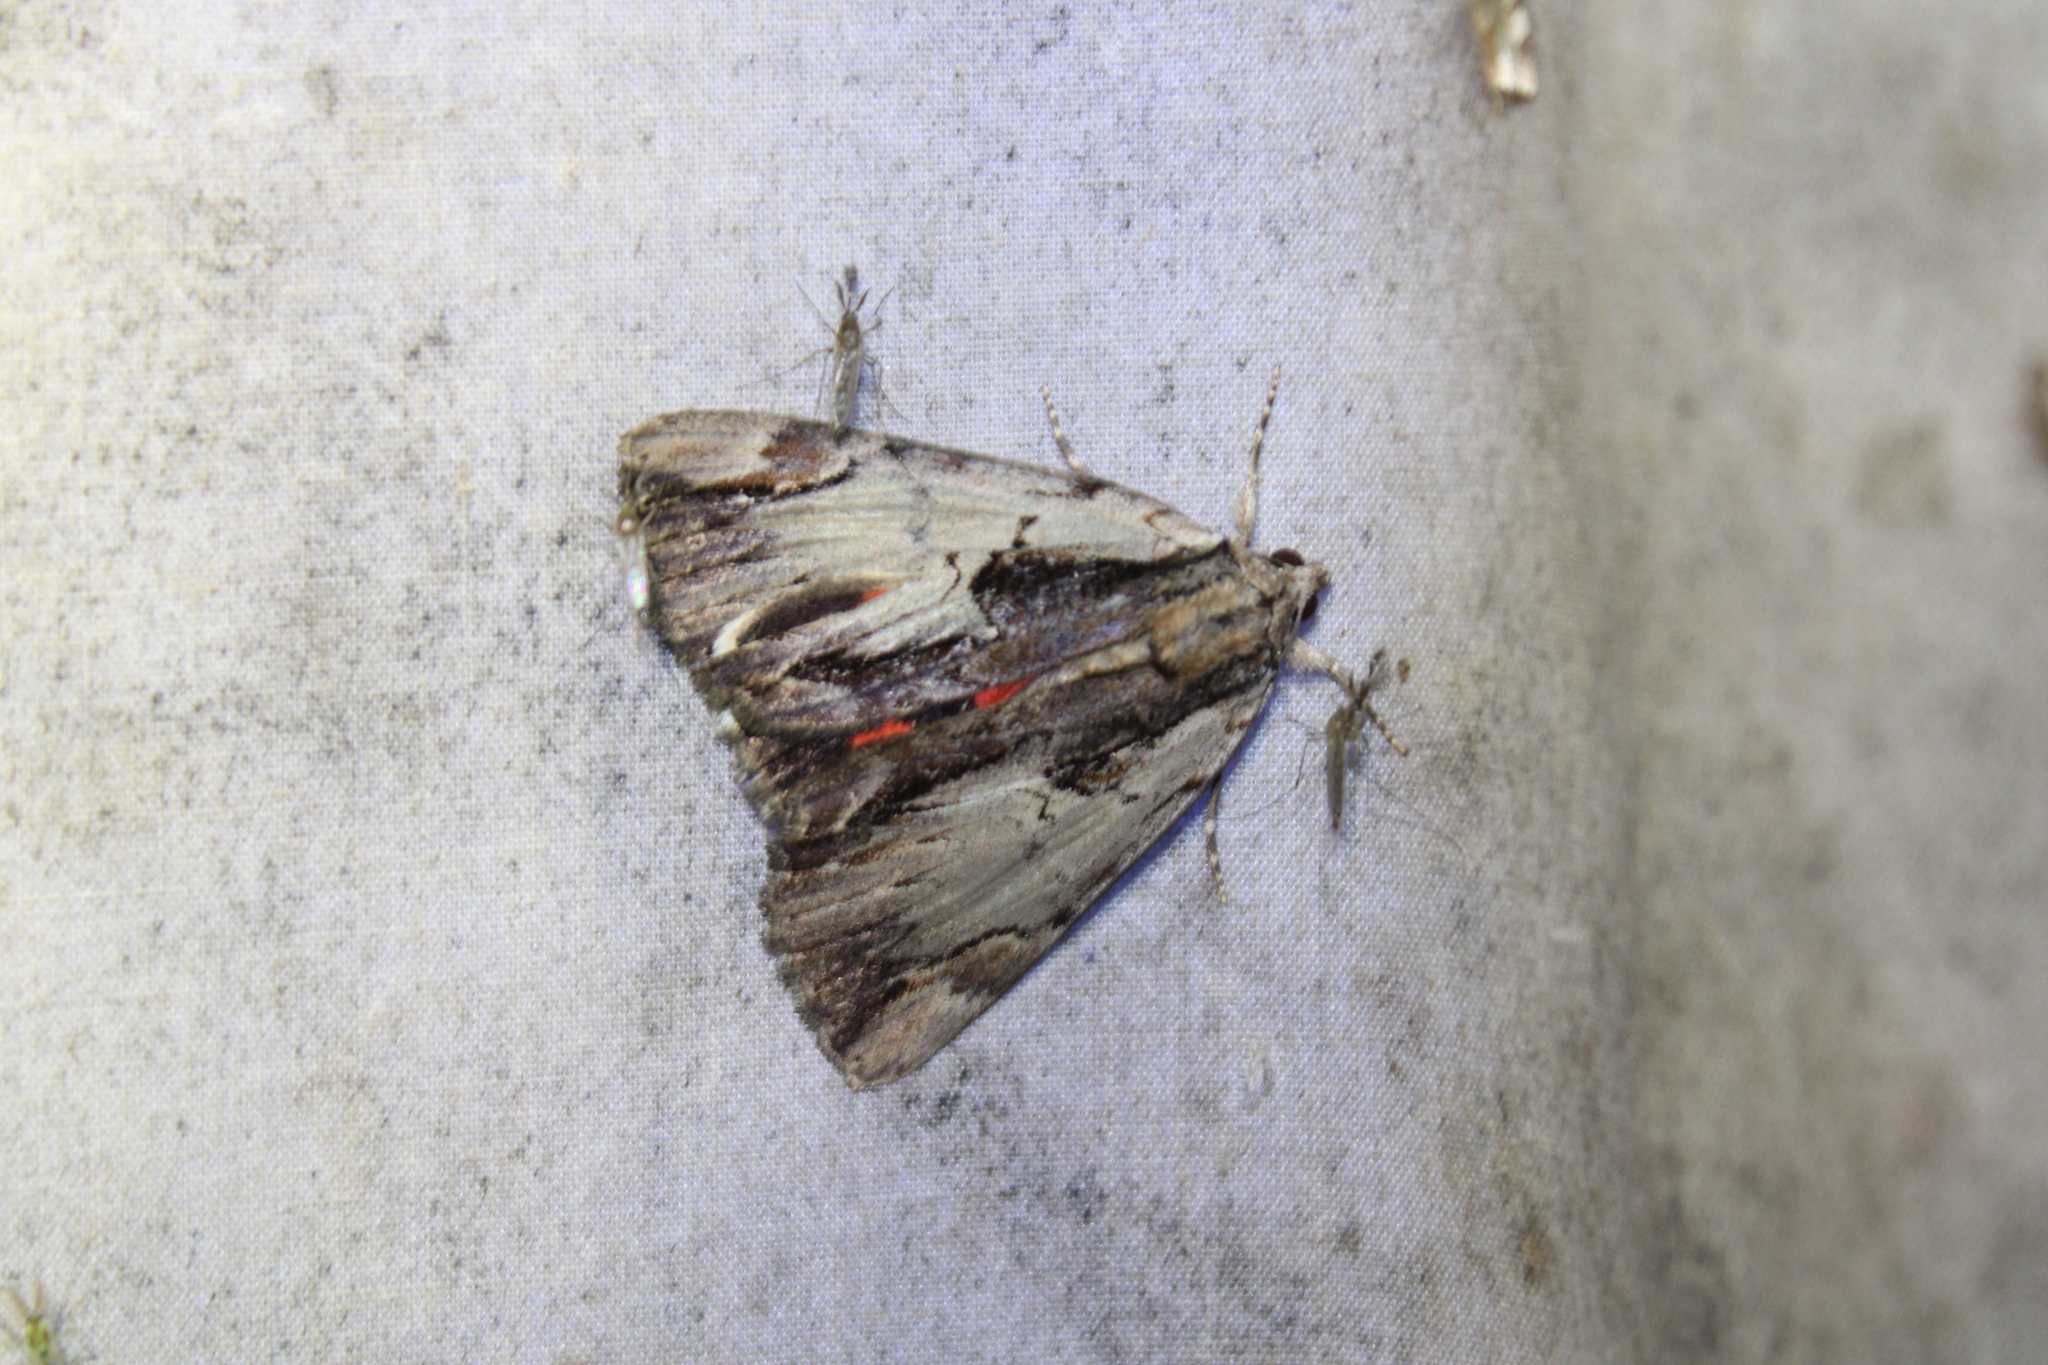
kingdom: Animalia
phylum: Arthropoda
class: Insecta
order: Lepidoptera
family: Erebidae
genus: Catocala
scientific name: Catocala ultronia
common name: Ultronia underwing
